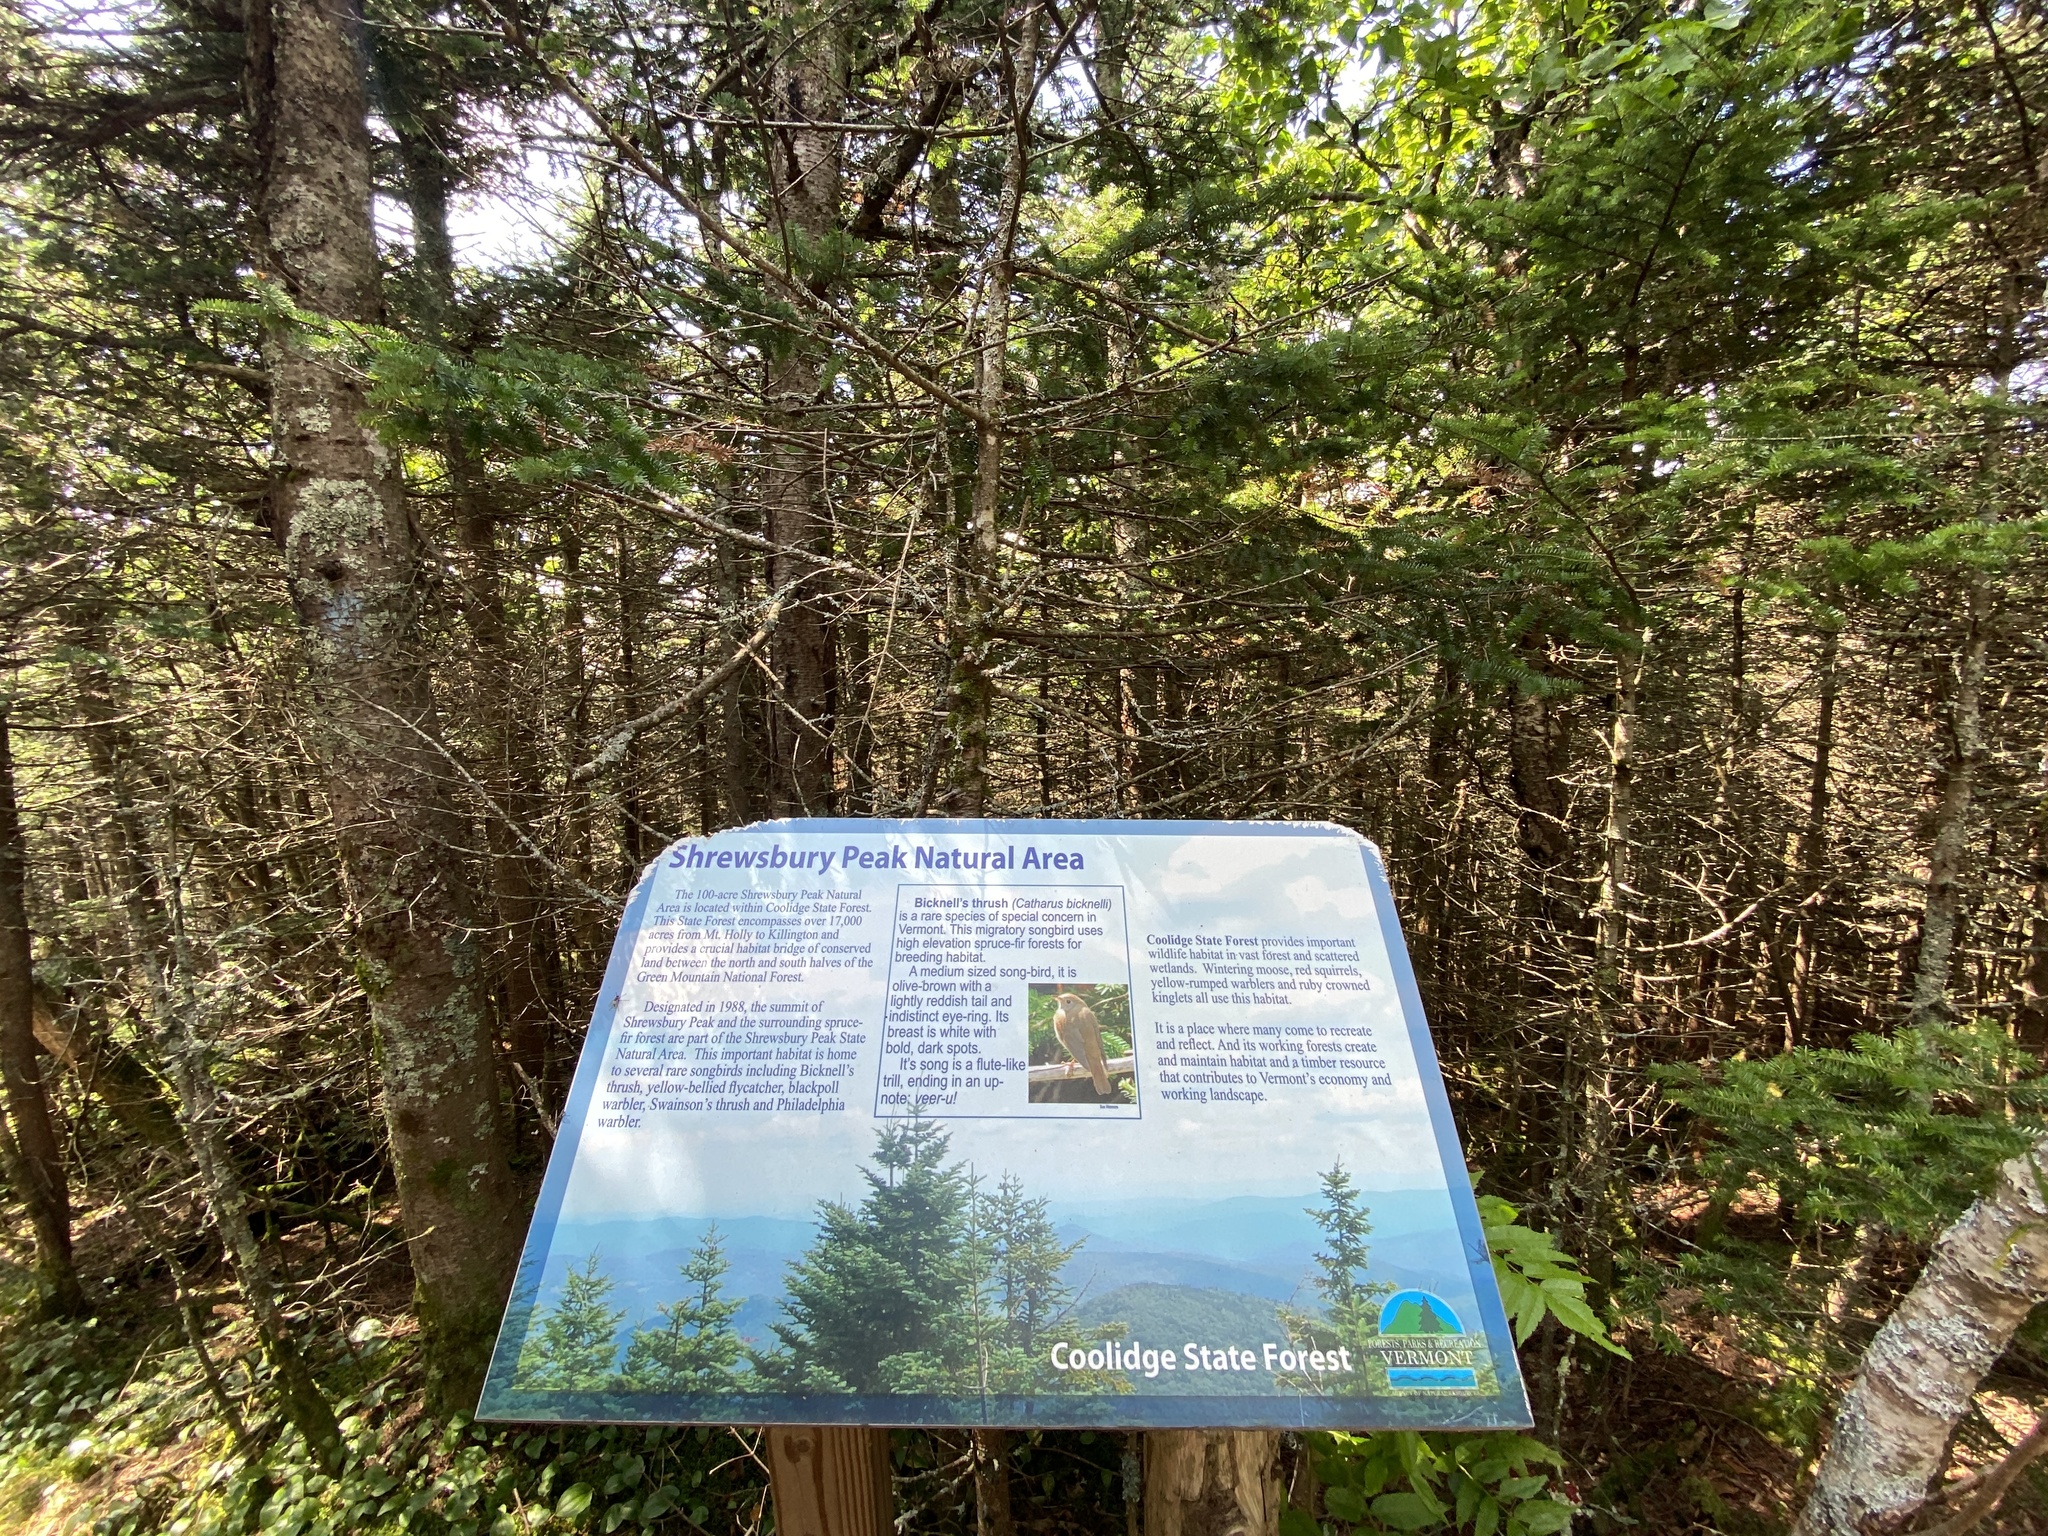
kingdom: Plantae
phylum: Tracheophyta
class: Pinopsida
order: Pinales
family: Pinaceae
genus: Abies
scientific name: Abies balsamea
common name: Balsam fir
